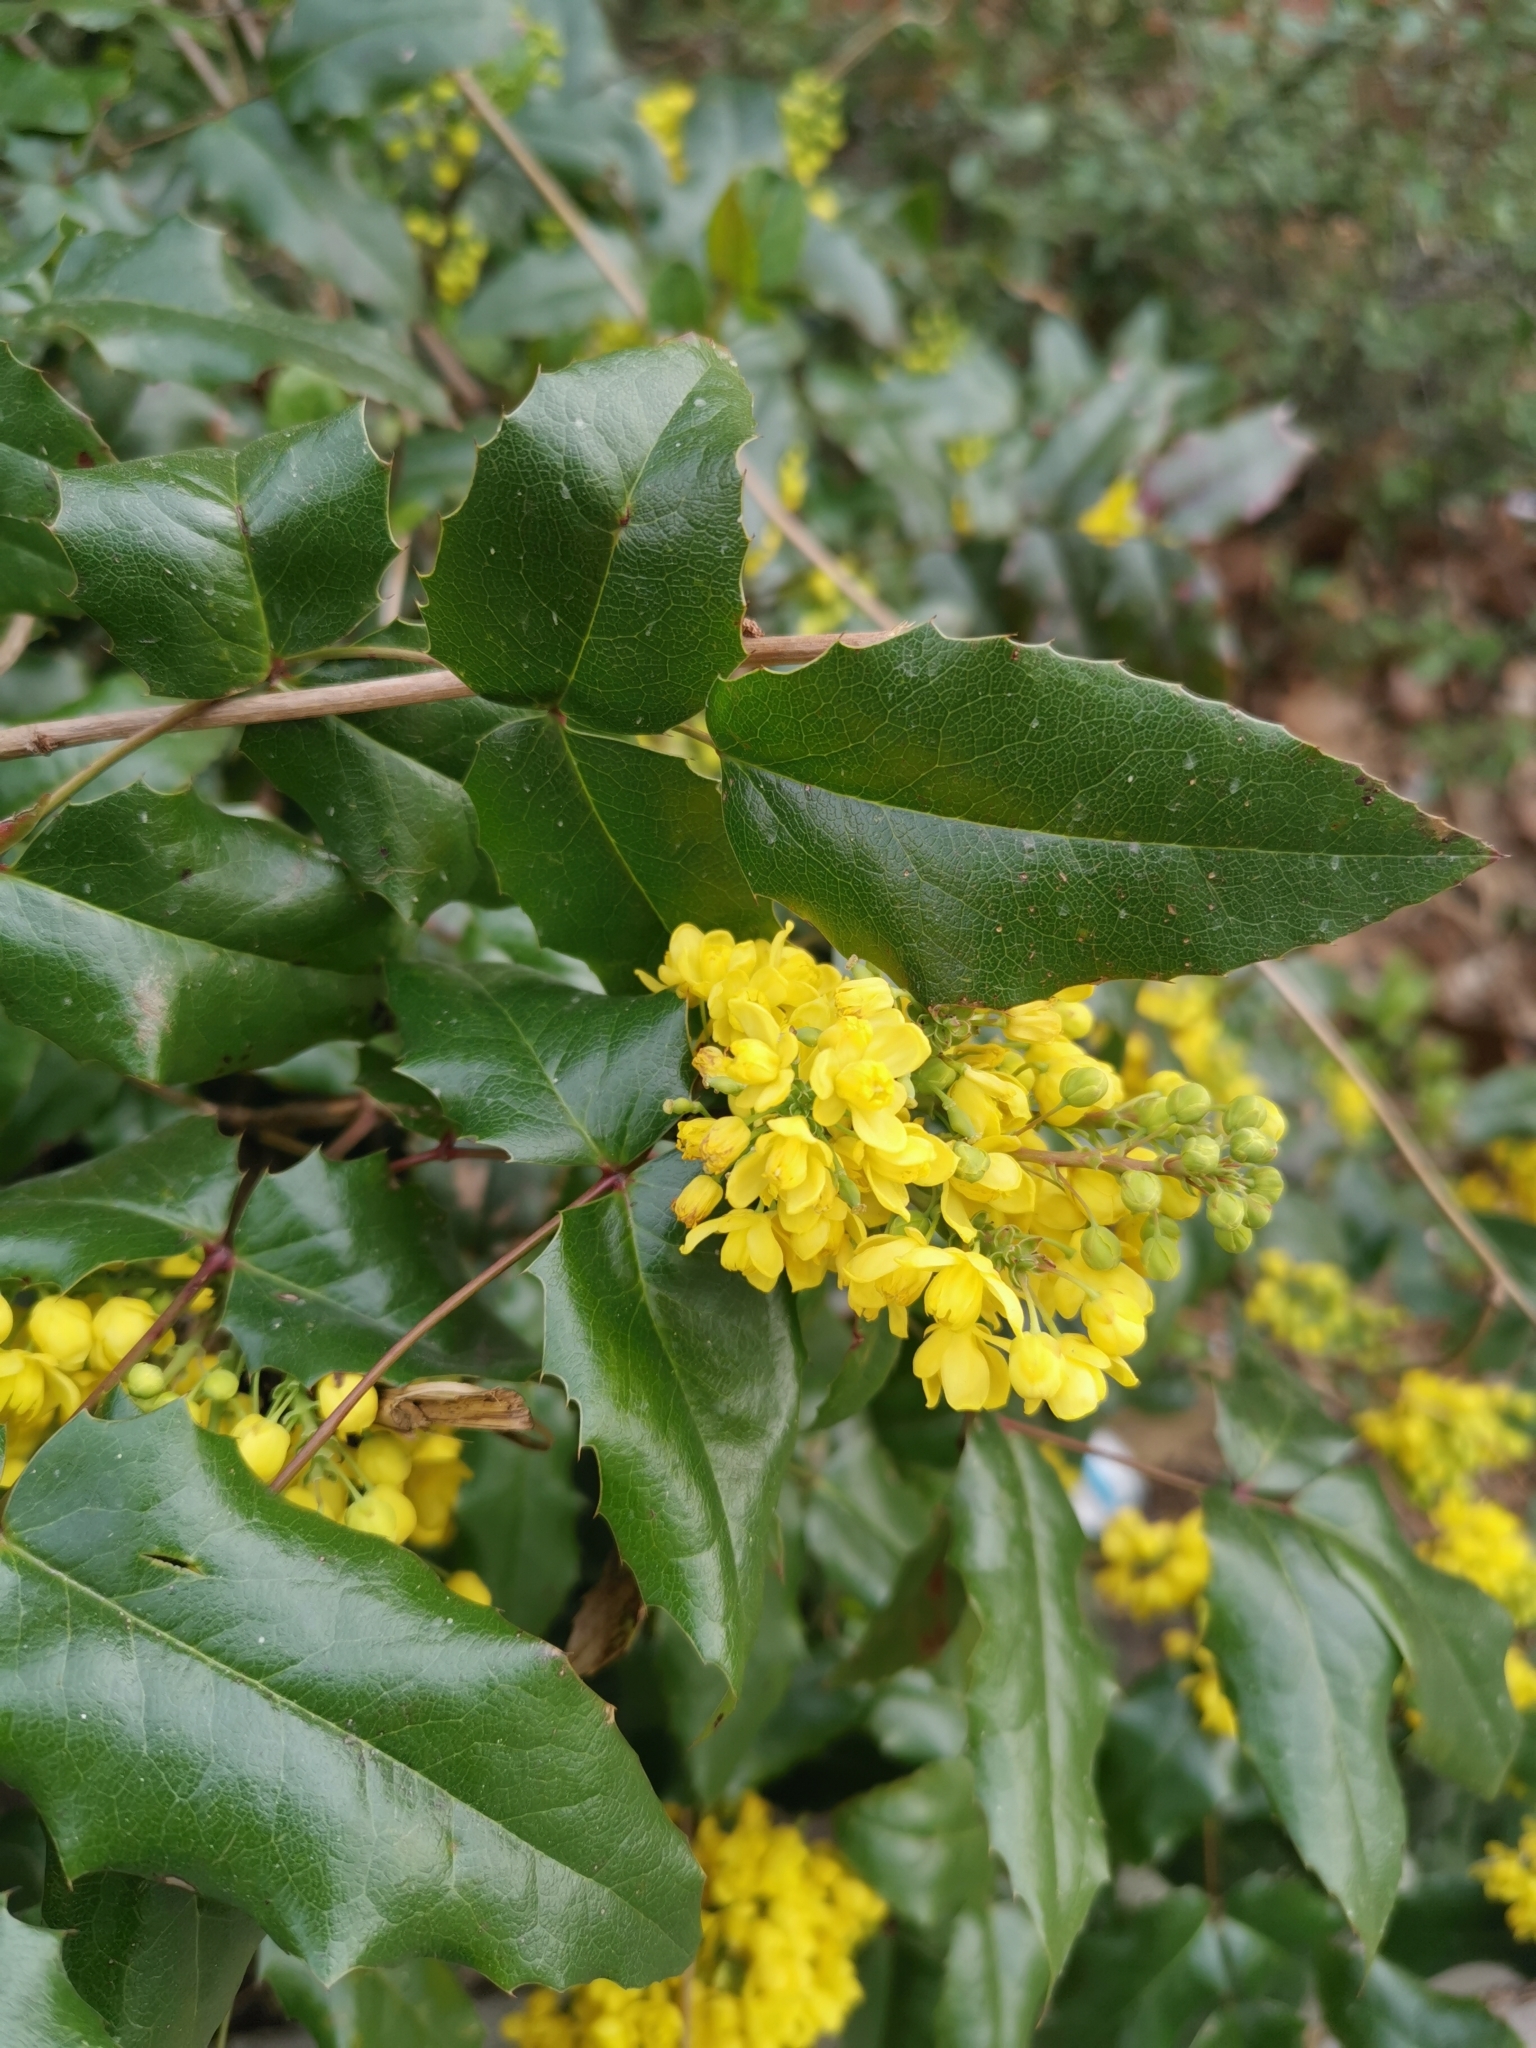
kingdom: Plantae
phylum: Tracheophyta
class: Magnoliopsida
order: Ranunculales
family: Berberidaceae
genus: Mahonia
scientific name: Mahonia aquifolium
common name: Oregon-grape
